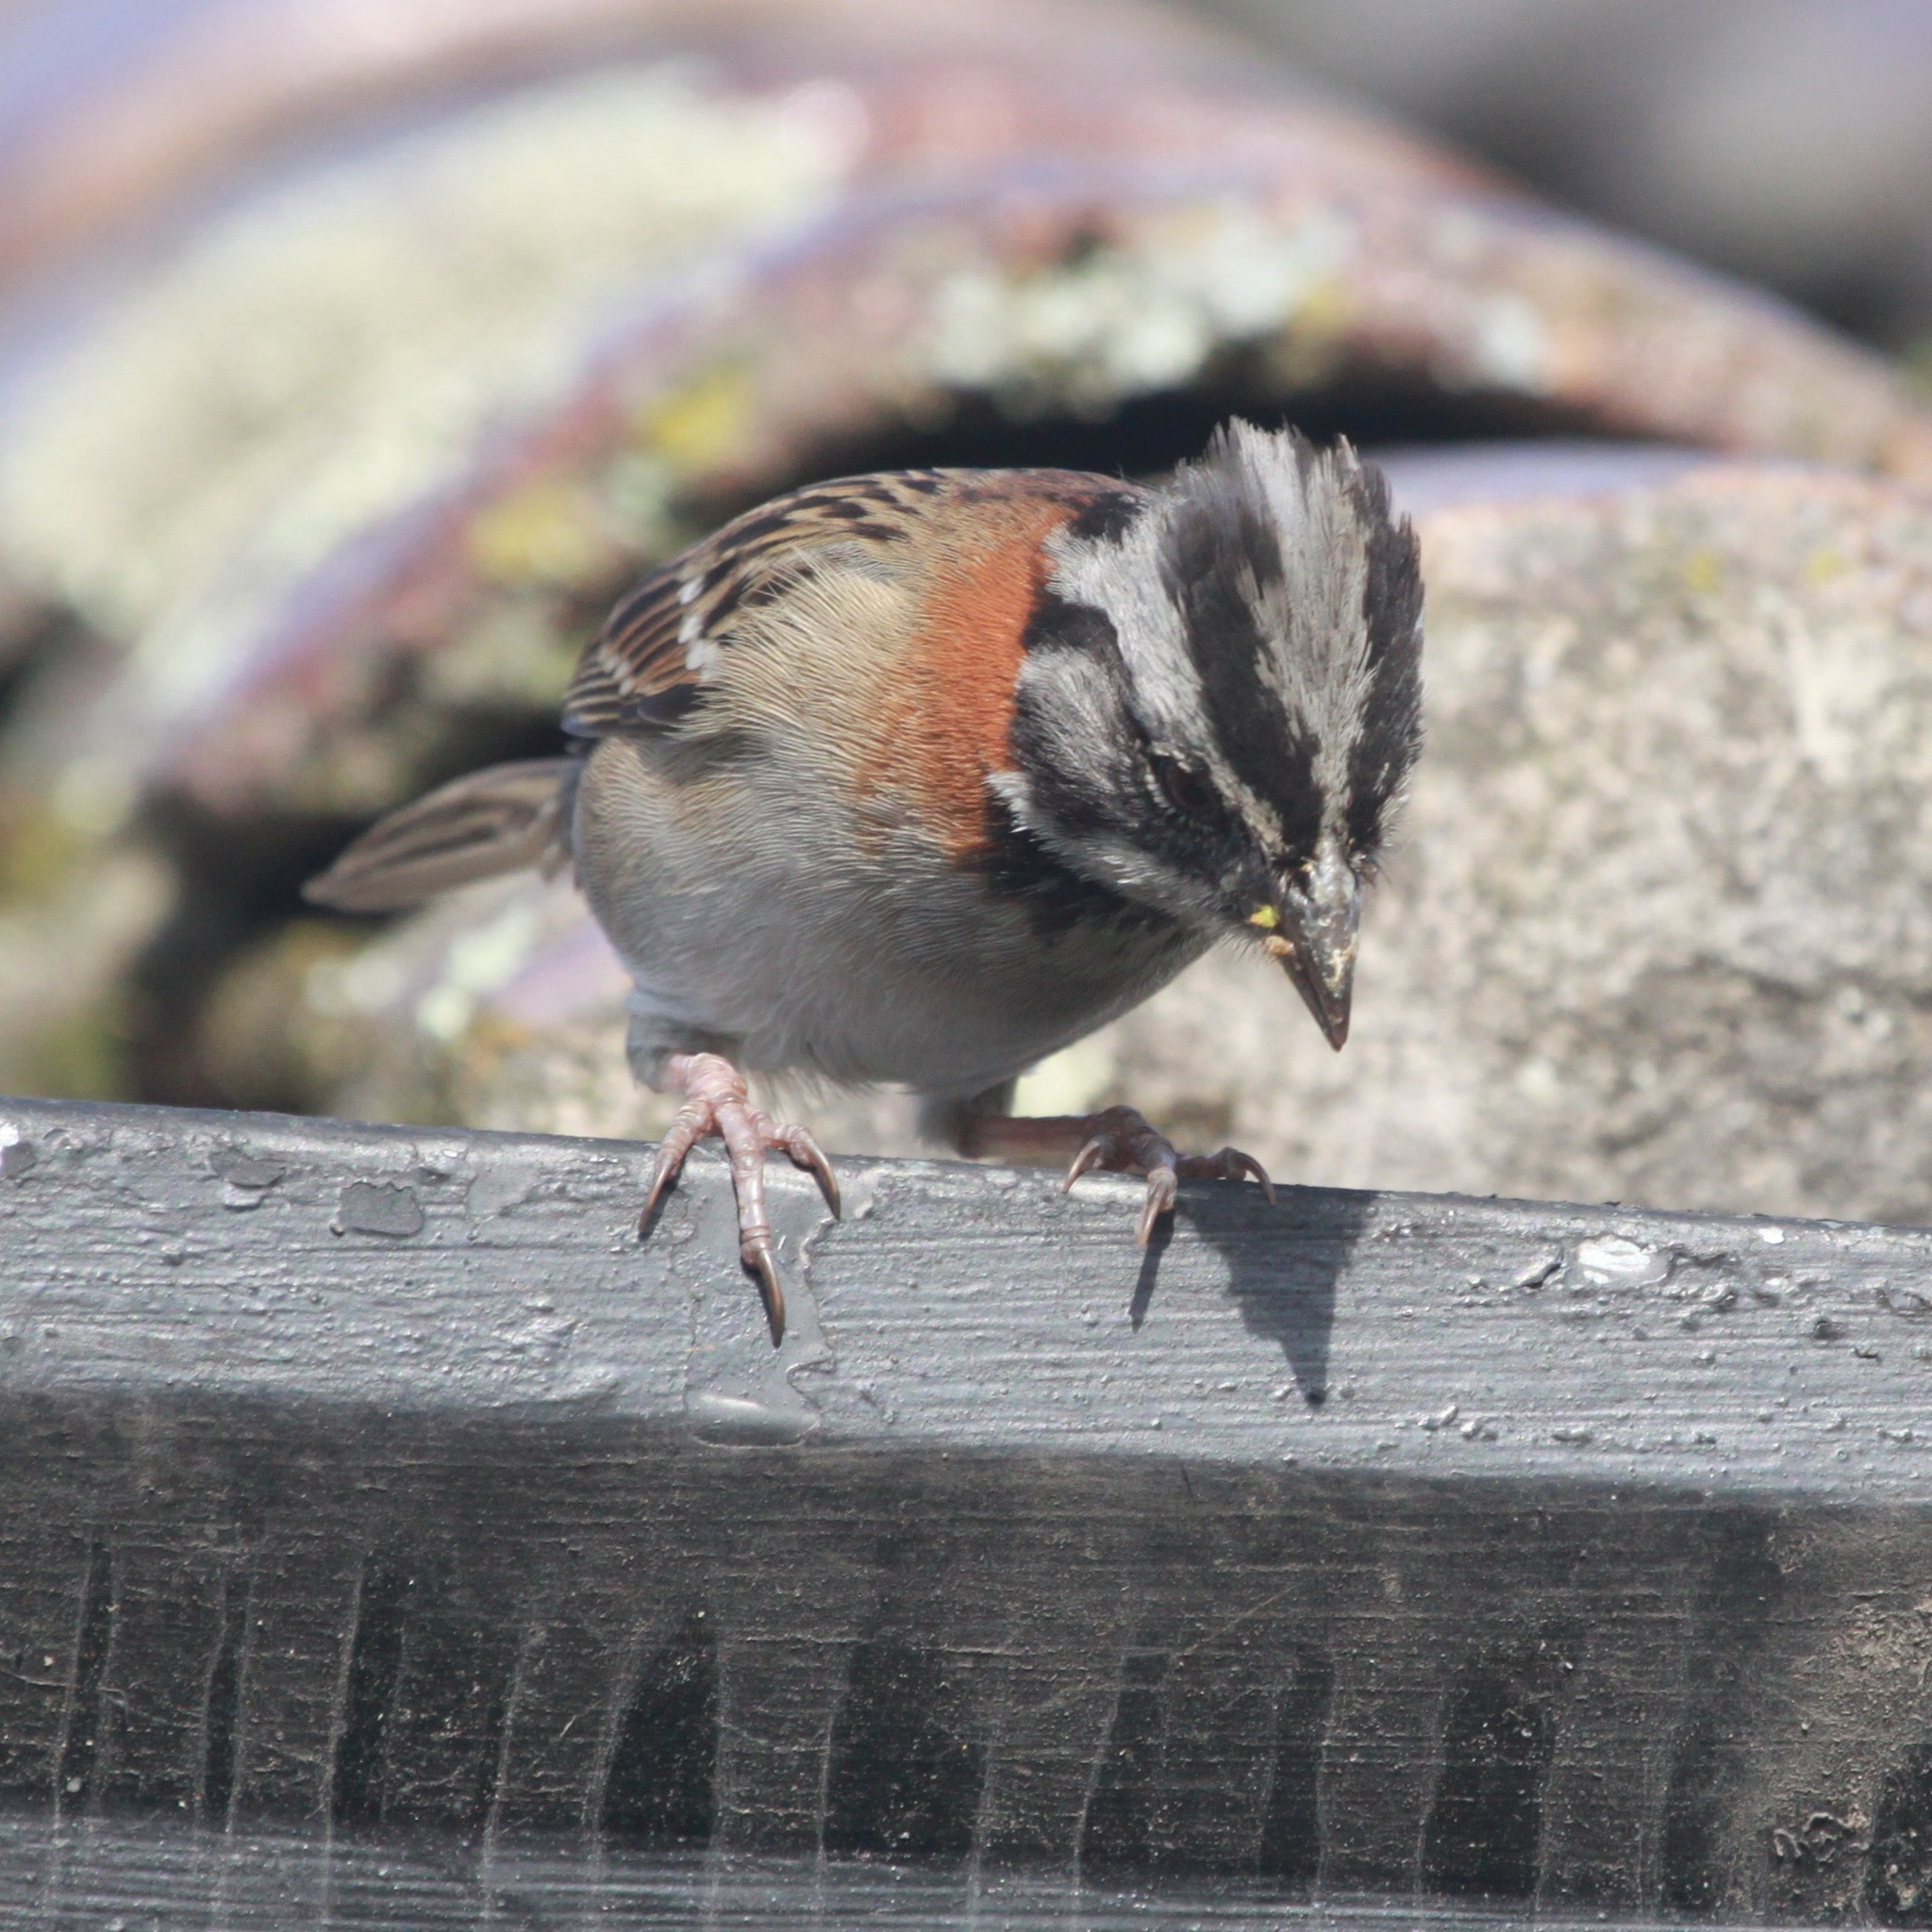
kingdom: Animalia
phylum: Chordata
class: Aves
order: Passeriformes
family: Passerellidae
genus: Zonotrichia
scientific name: Zonotrichia capensis
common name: Rufous-collared sparrow
